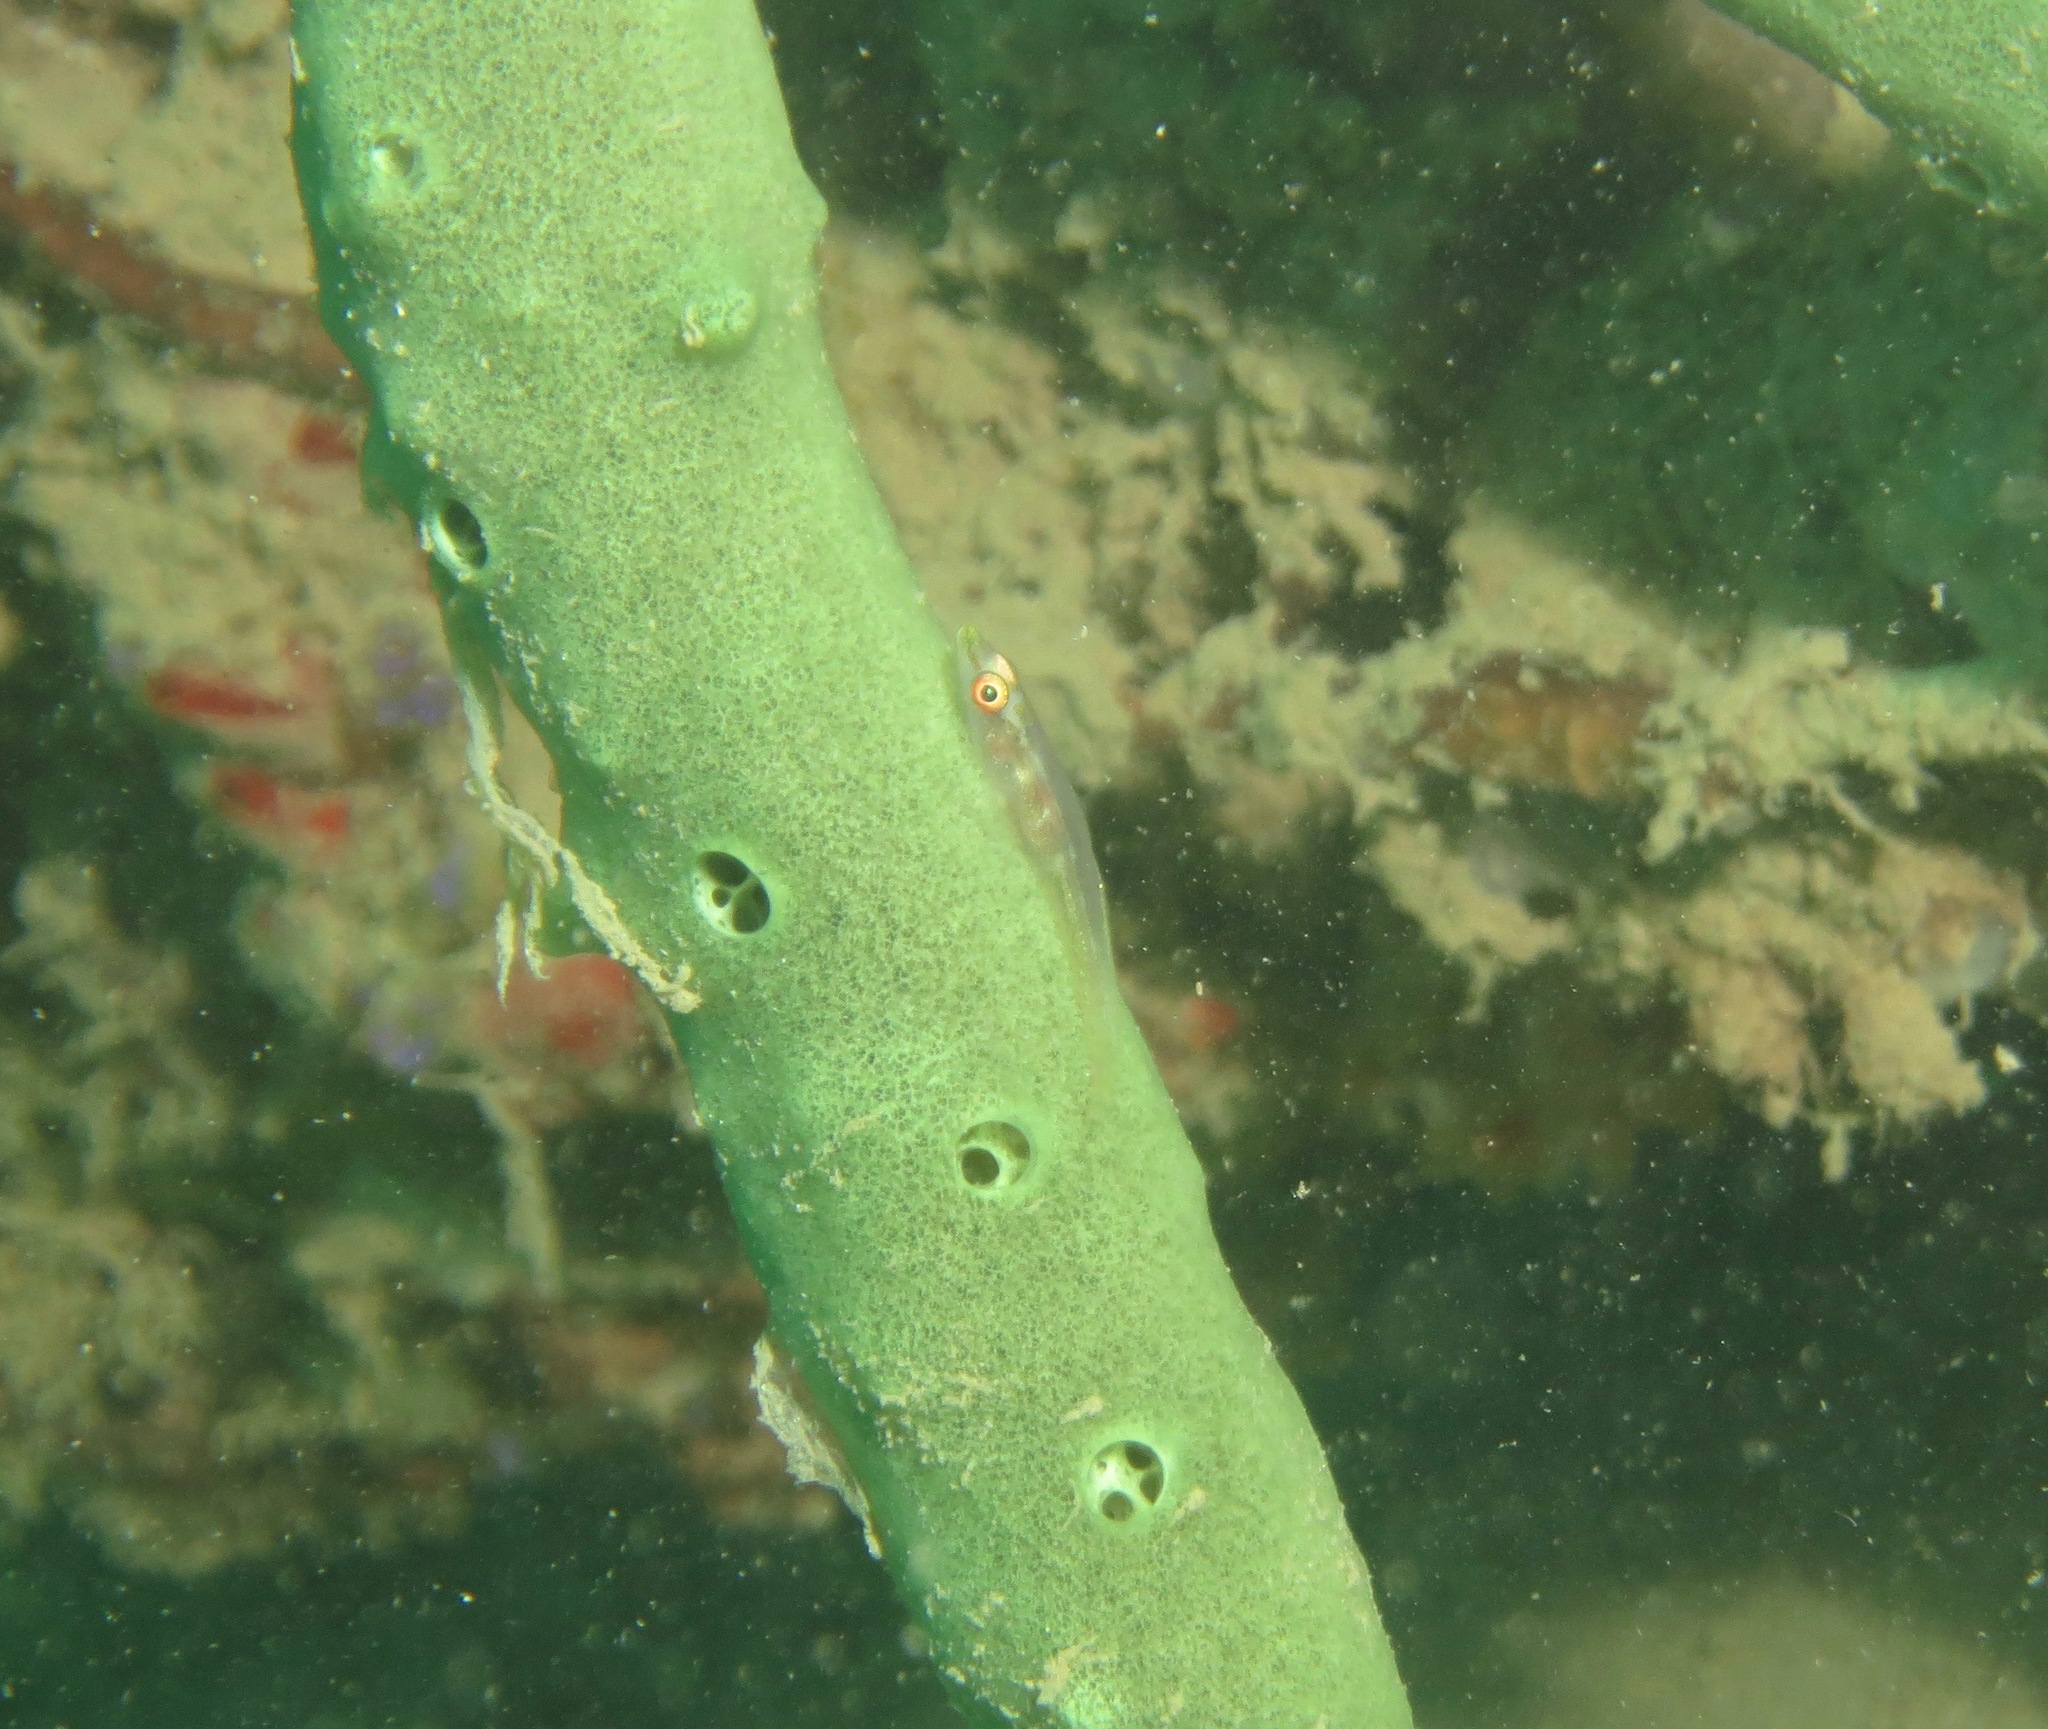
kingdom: Animalia
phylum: Chordata
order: Perciformes
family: Gobiidae
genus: Bryaninops
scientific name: Bryaninops dianneae
